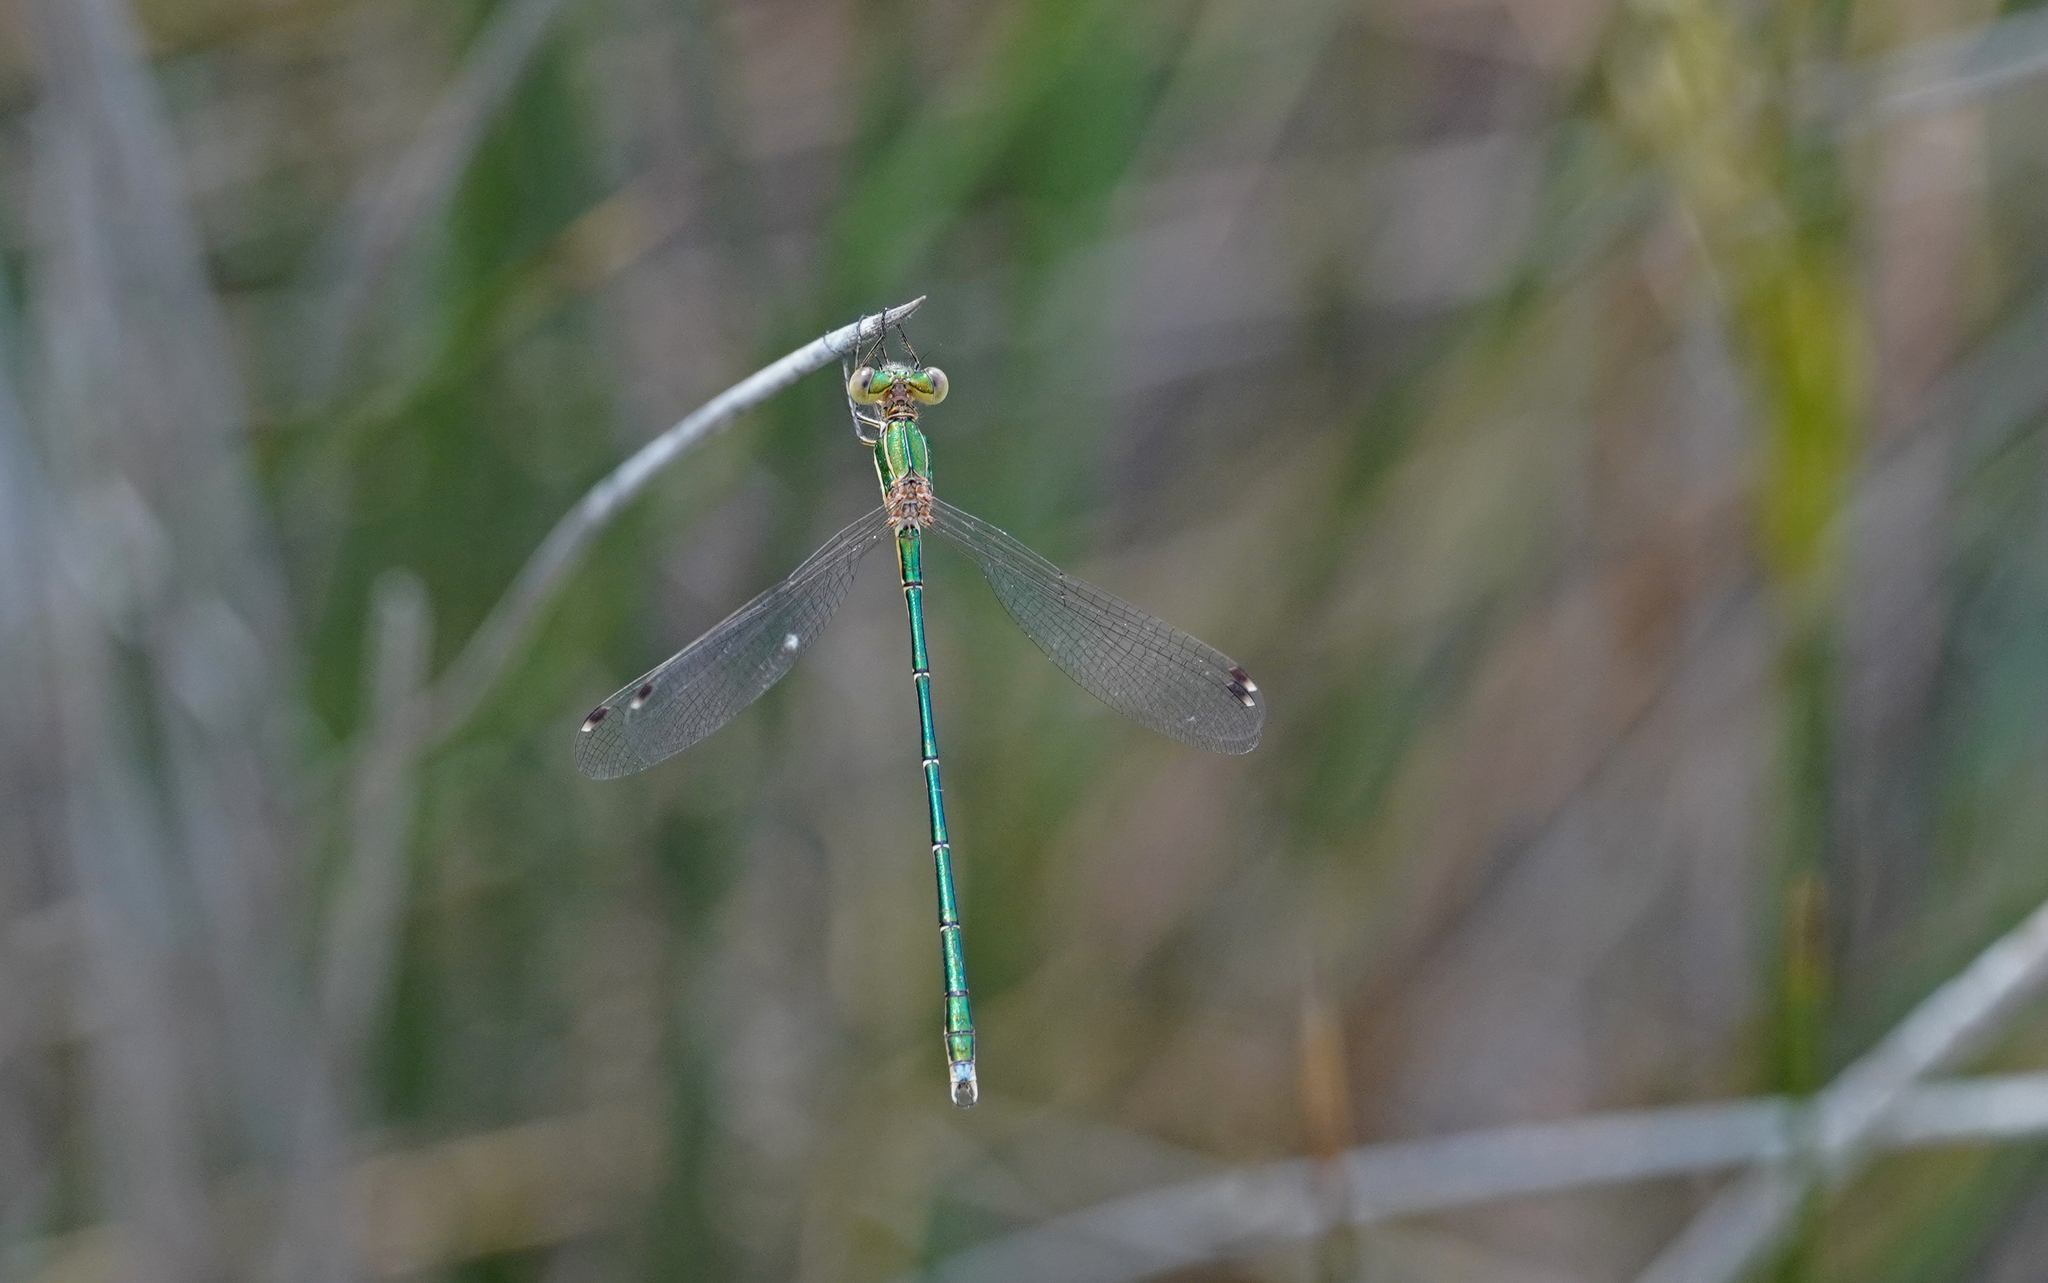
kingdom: Animalia
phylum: Arthropoda
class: Insecta
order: Odonata
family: Lestidae
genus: Lestes
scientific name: Lestes barbarus
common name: Migrant spreadwing
